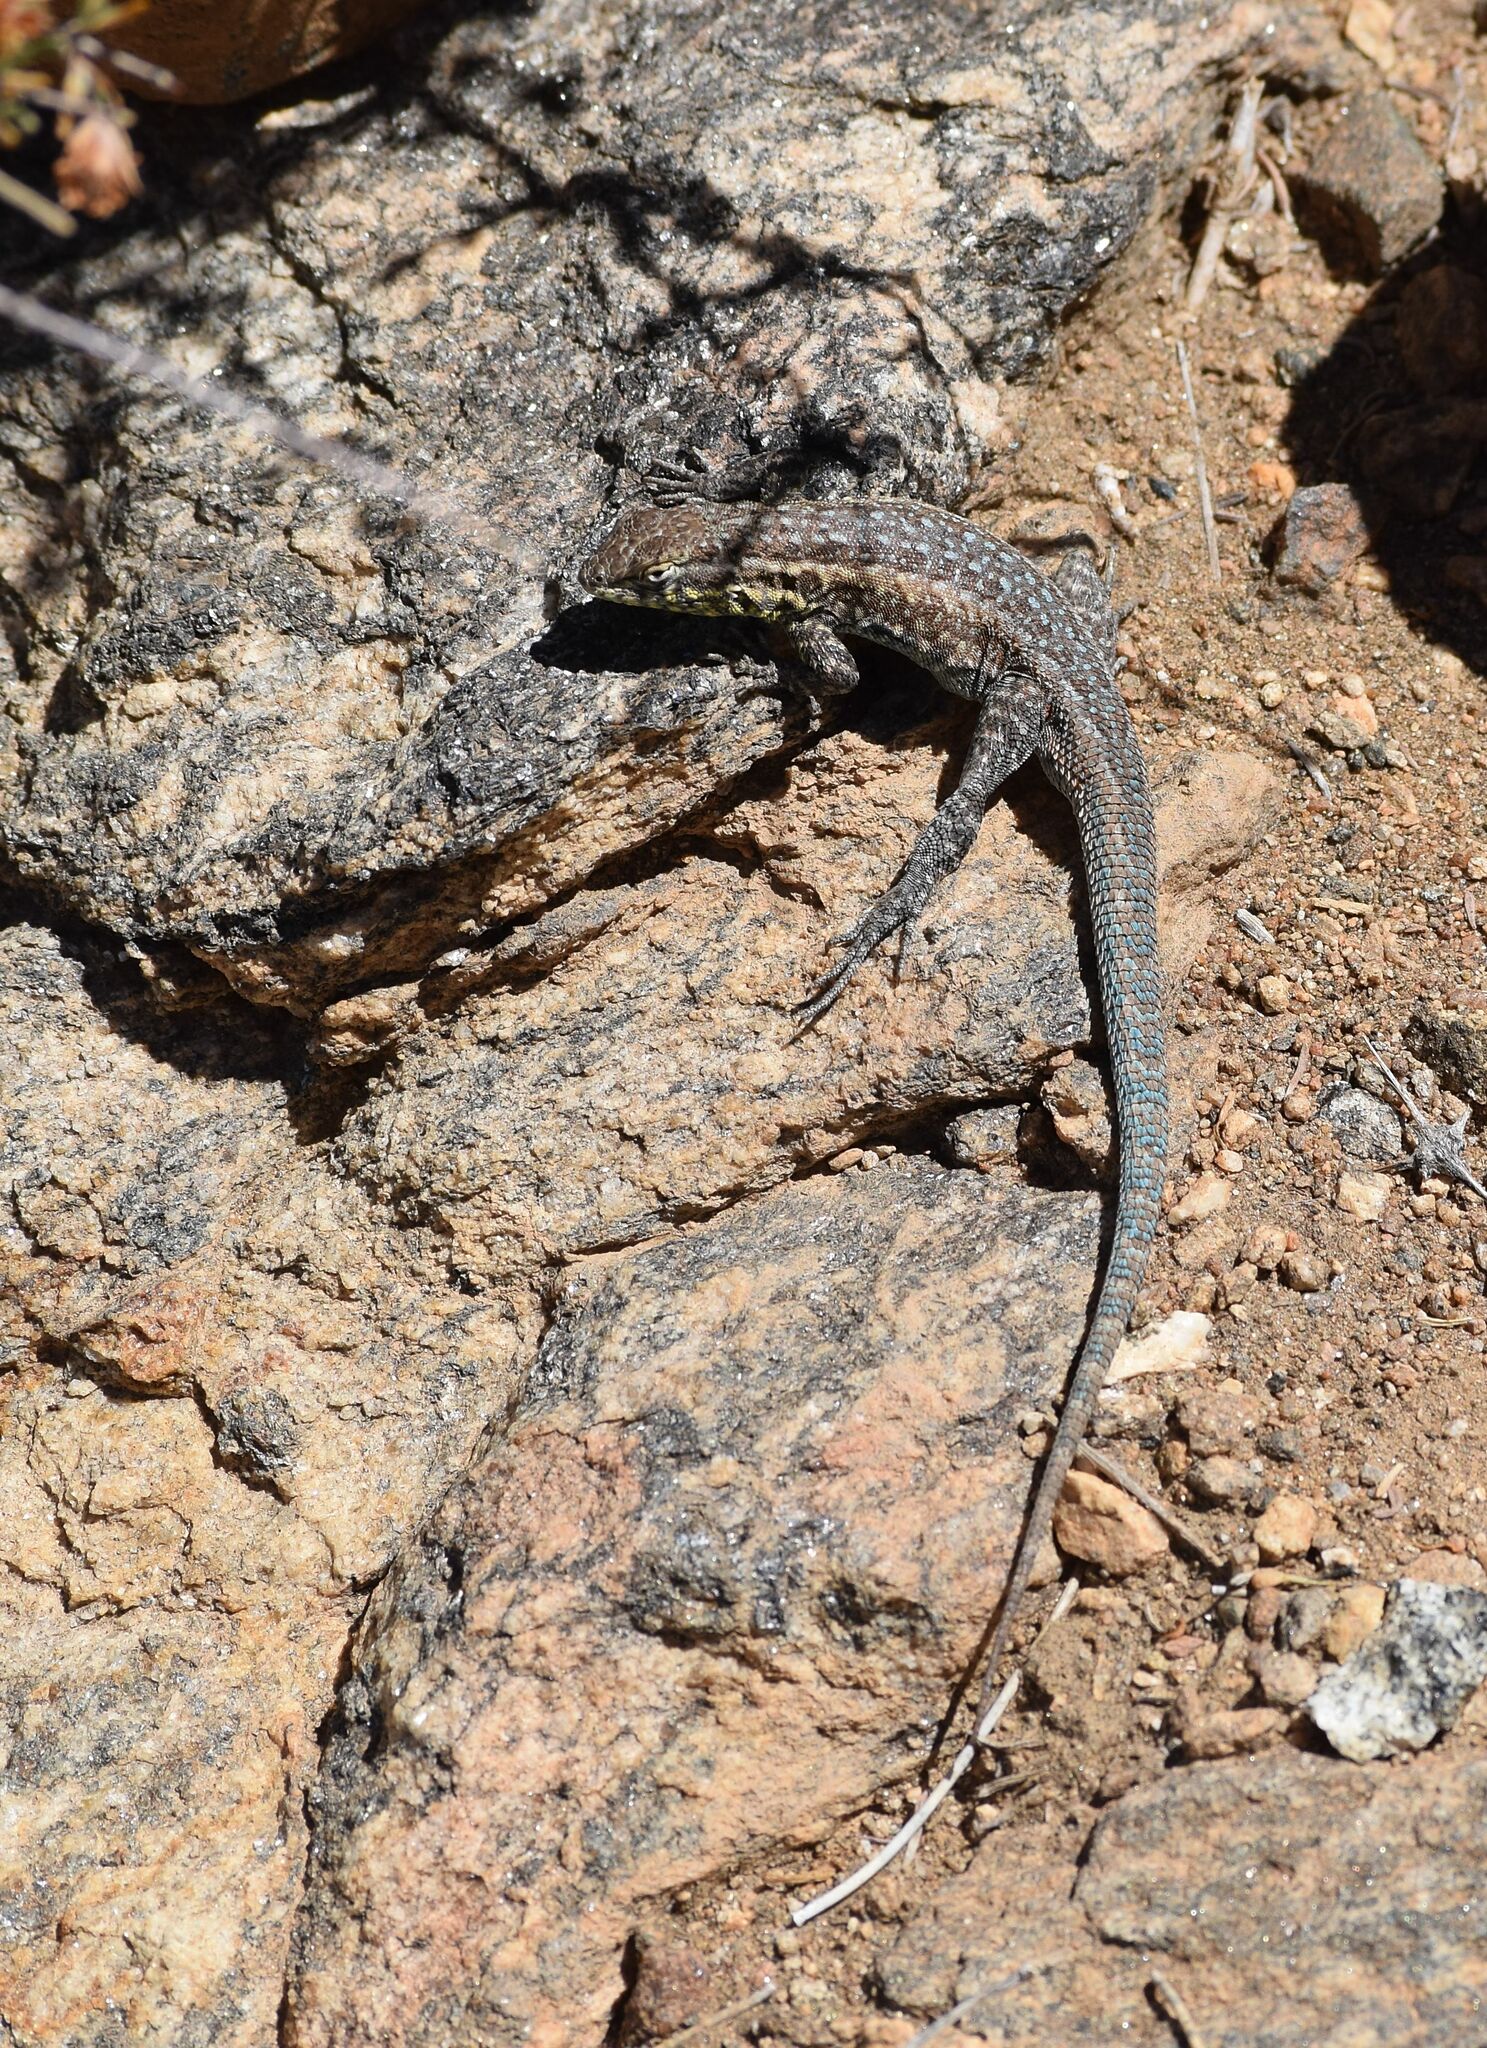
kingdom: Animalia
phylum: Chordata
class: Squamata
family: Phrynosomatidae
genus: Uta
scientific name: Uta stansburiana
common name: Side-blotched lizard
